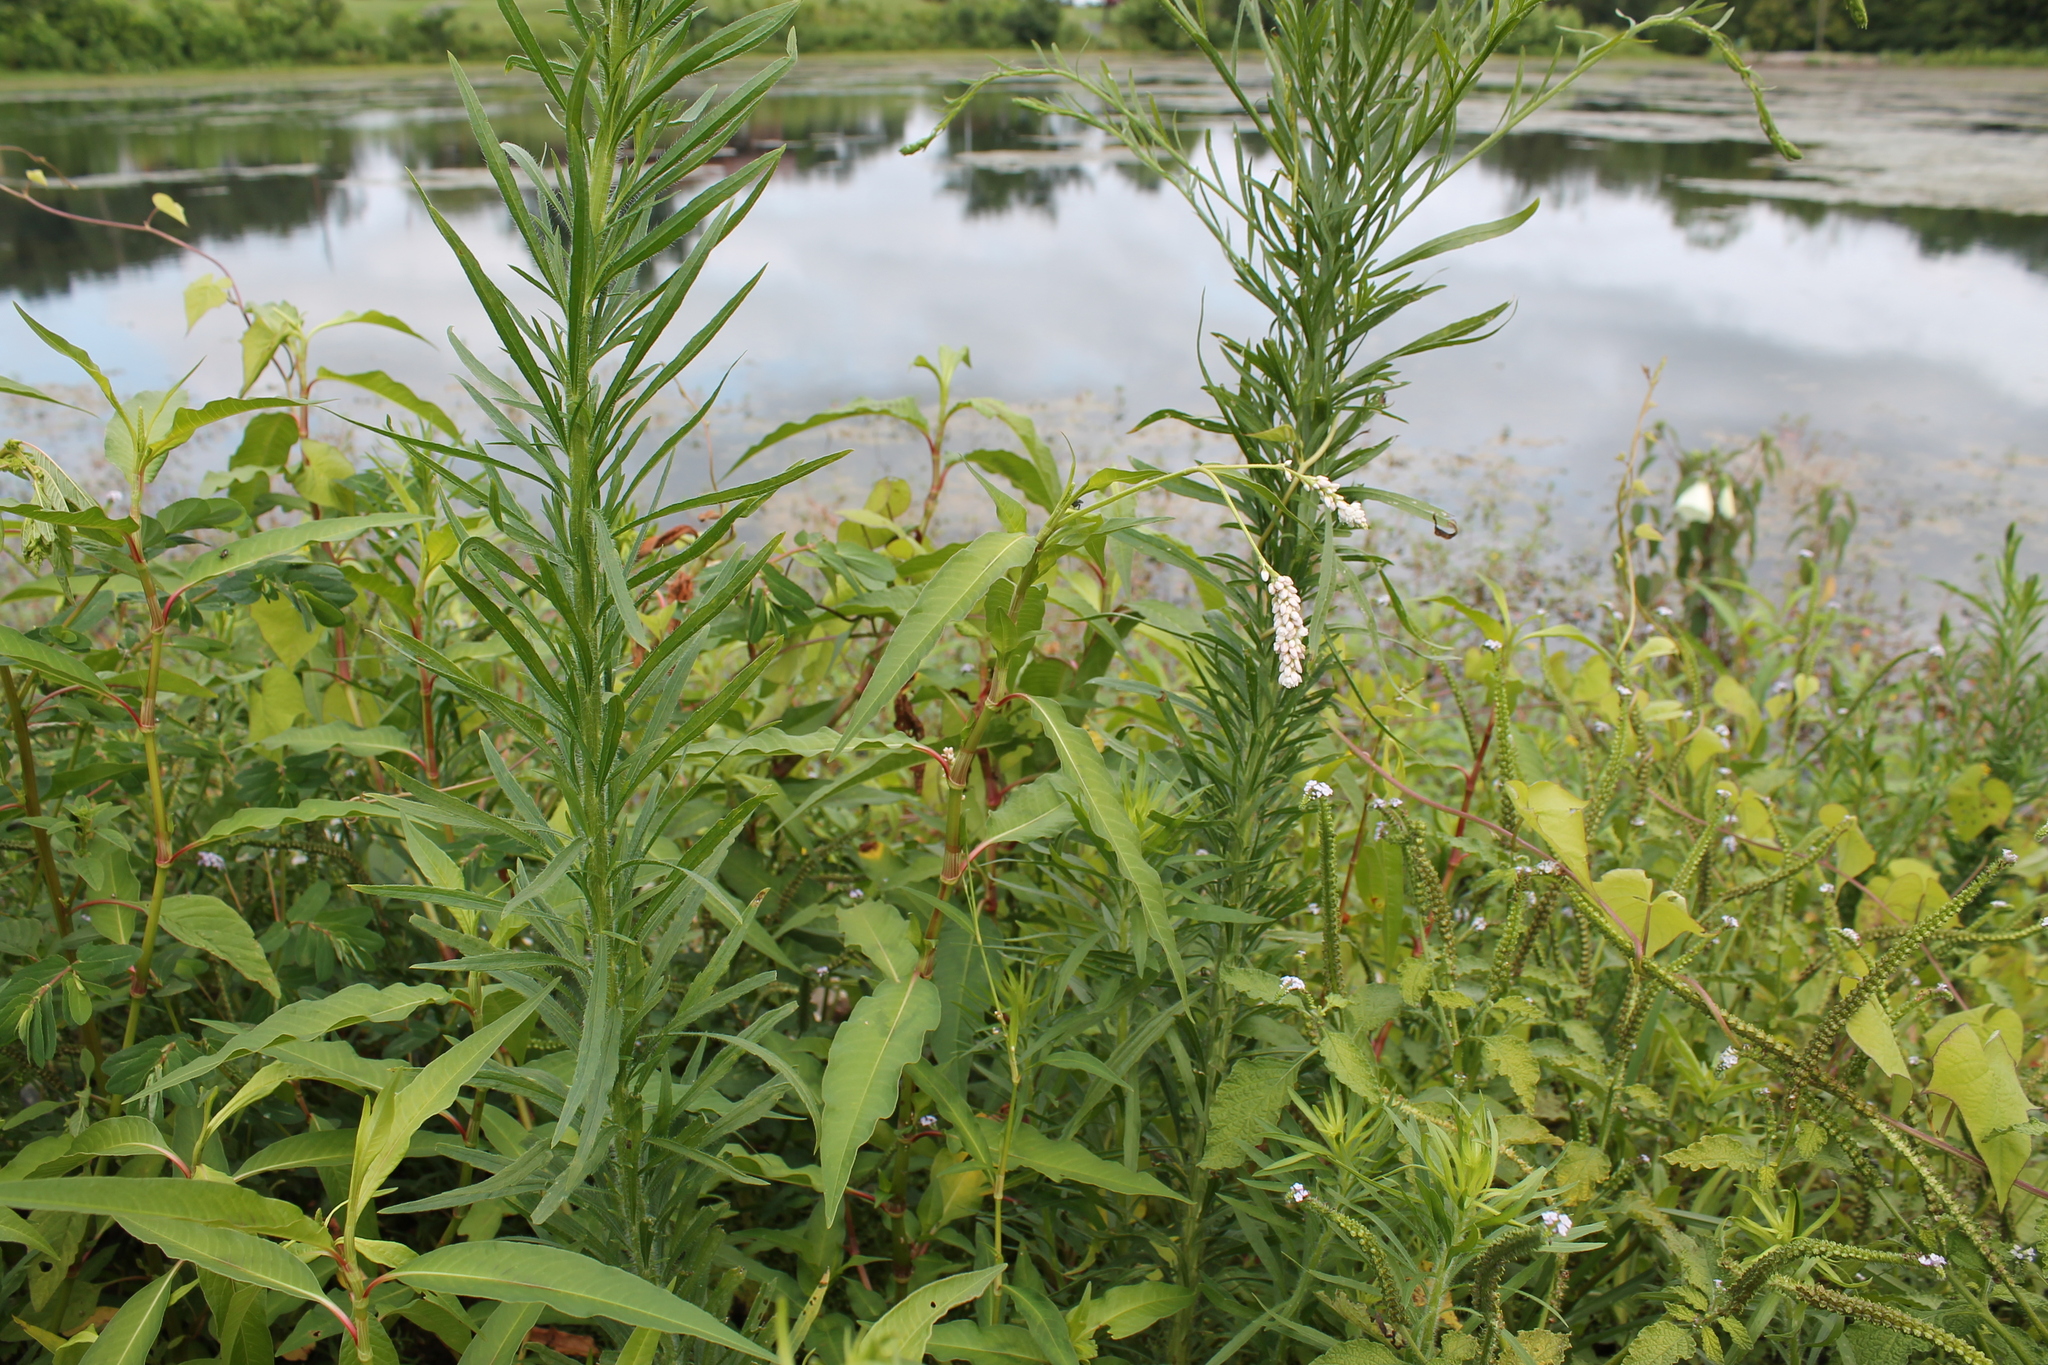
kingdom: Plantae
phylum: Tracheophyta
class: Magnoliopsida
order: Caryophyllales
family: Polygonaceae
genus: Persicaria
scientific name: Persicaria pensylvanica
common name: Pinkweed
